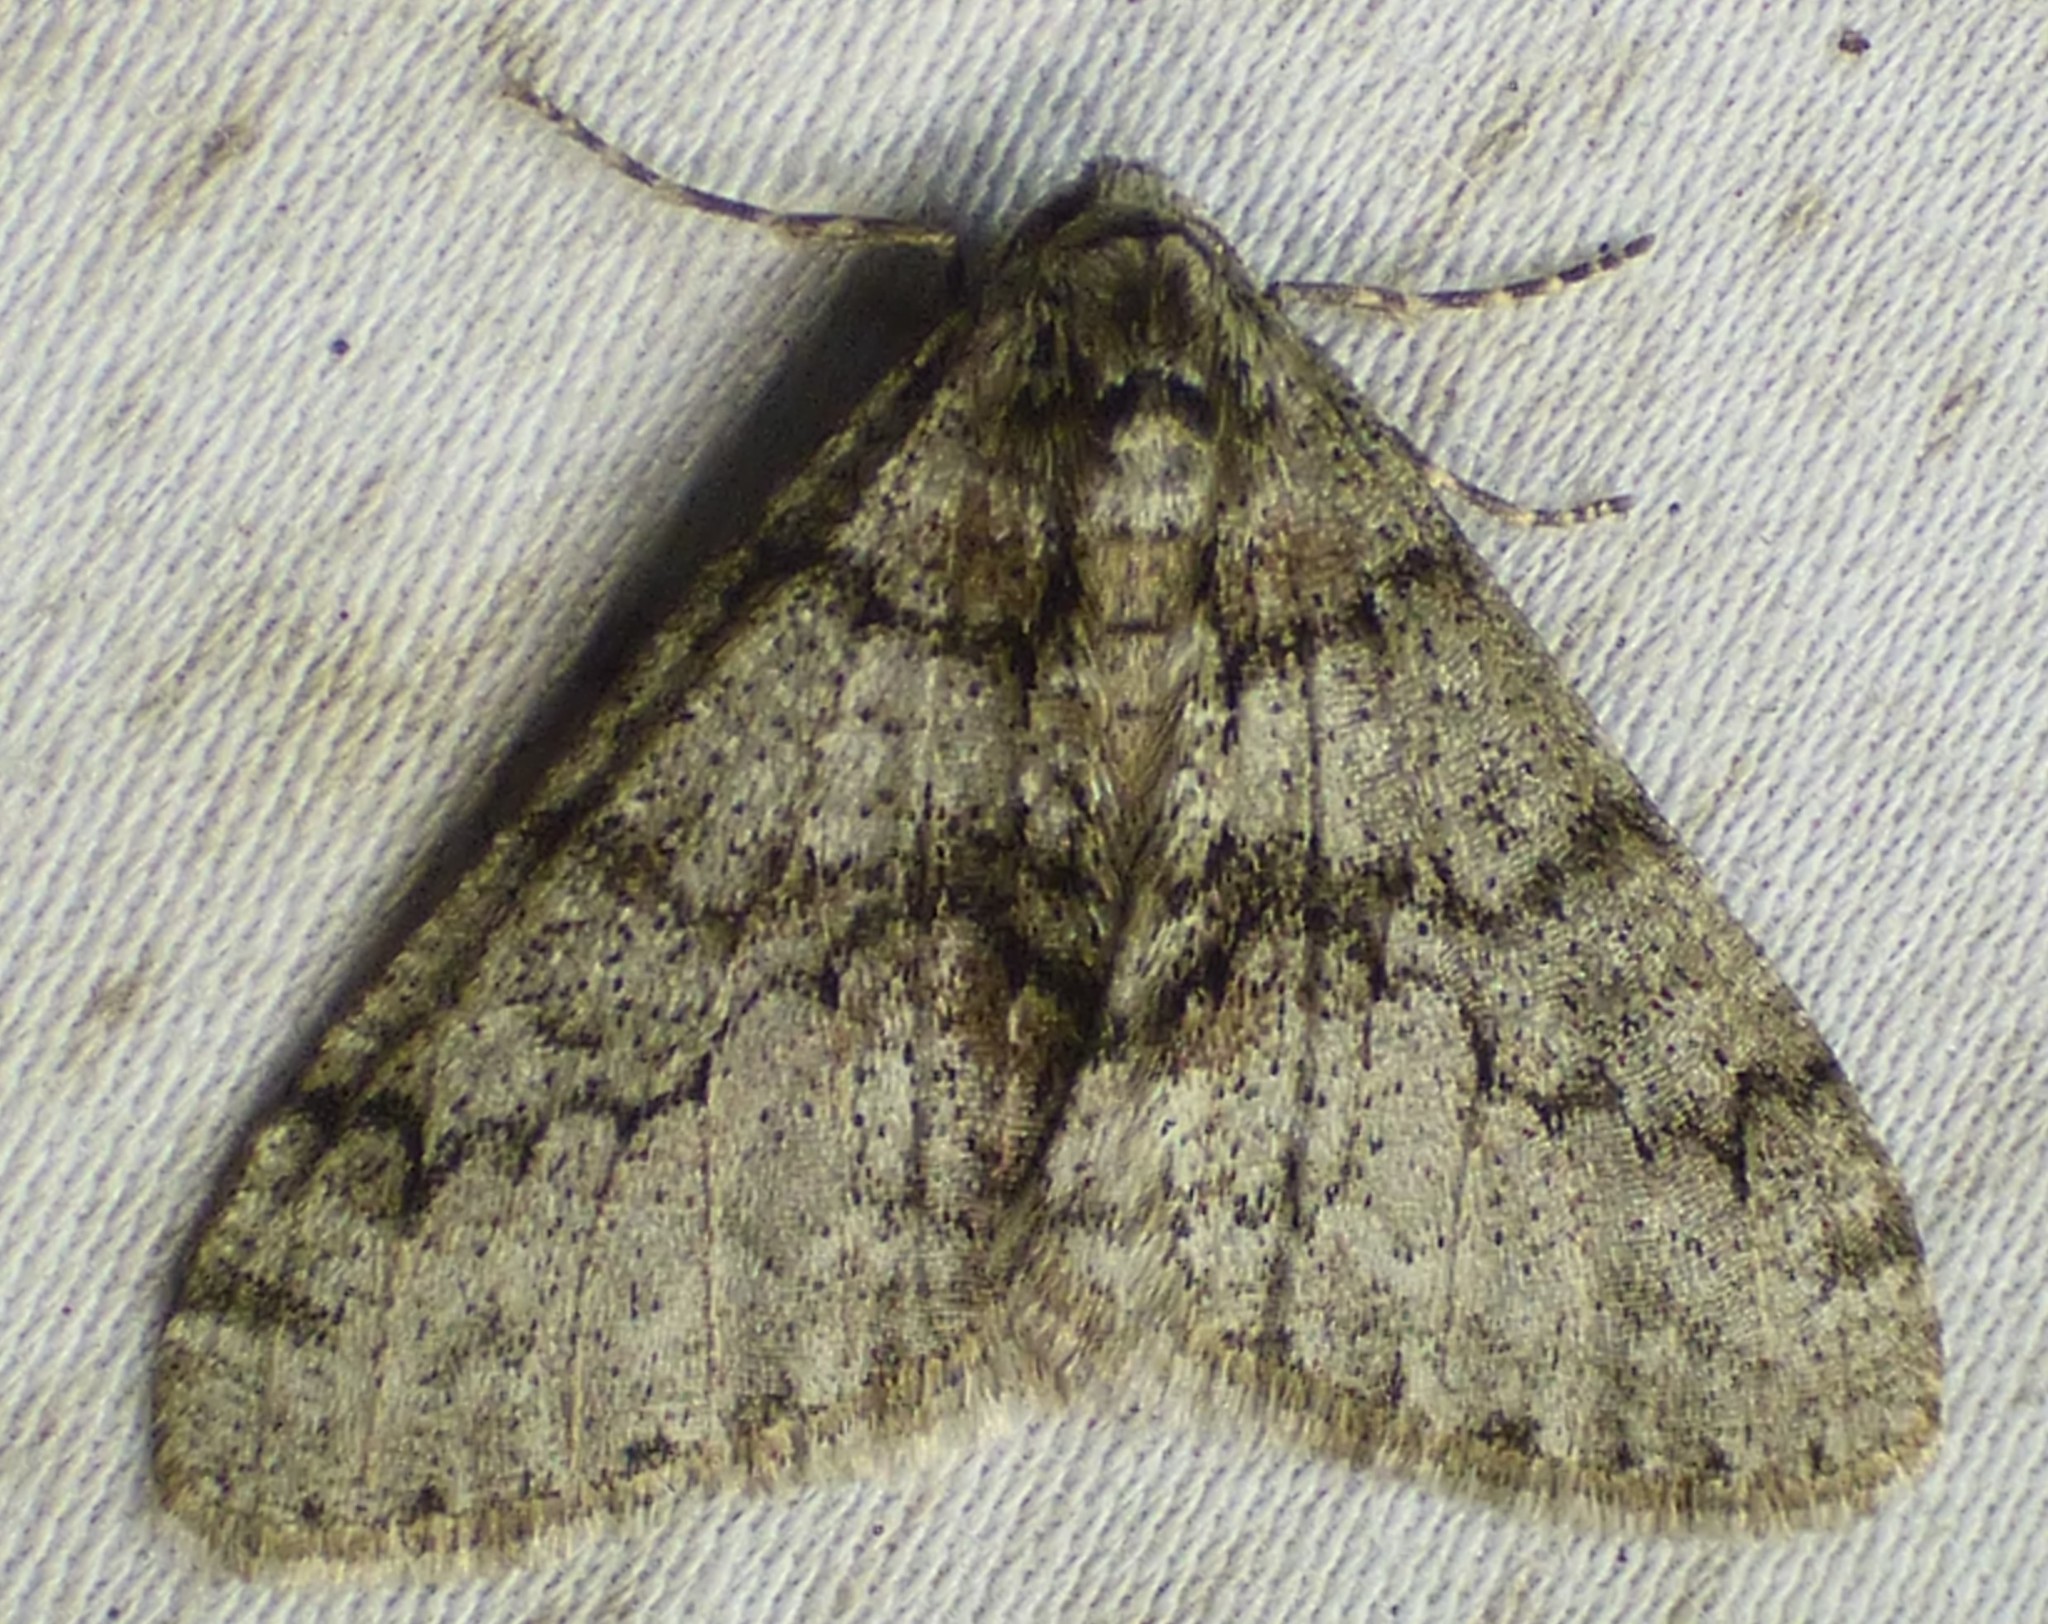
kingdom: Animalia
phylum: Arthropoda
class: Insecta
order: Lepidoptera
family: Geometridae
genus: Phigalia
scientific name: Phigalia strigataria
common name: Small phigalia
